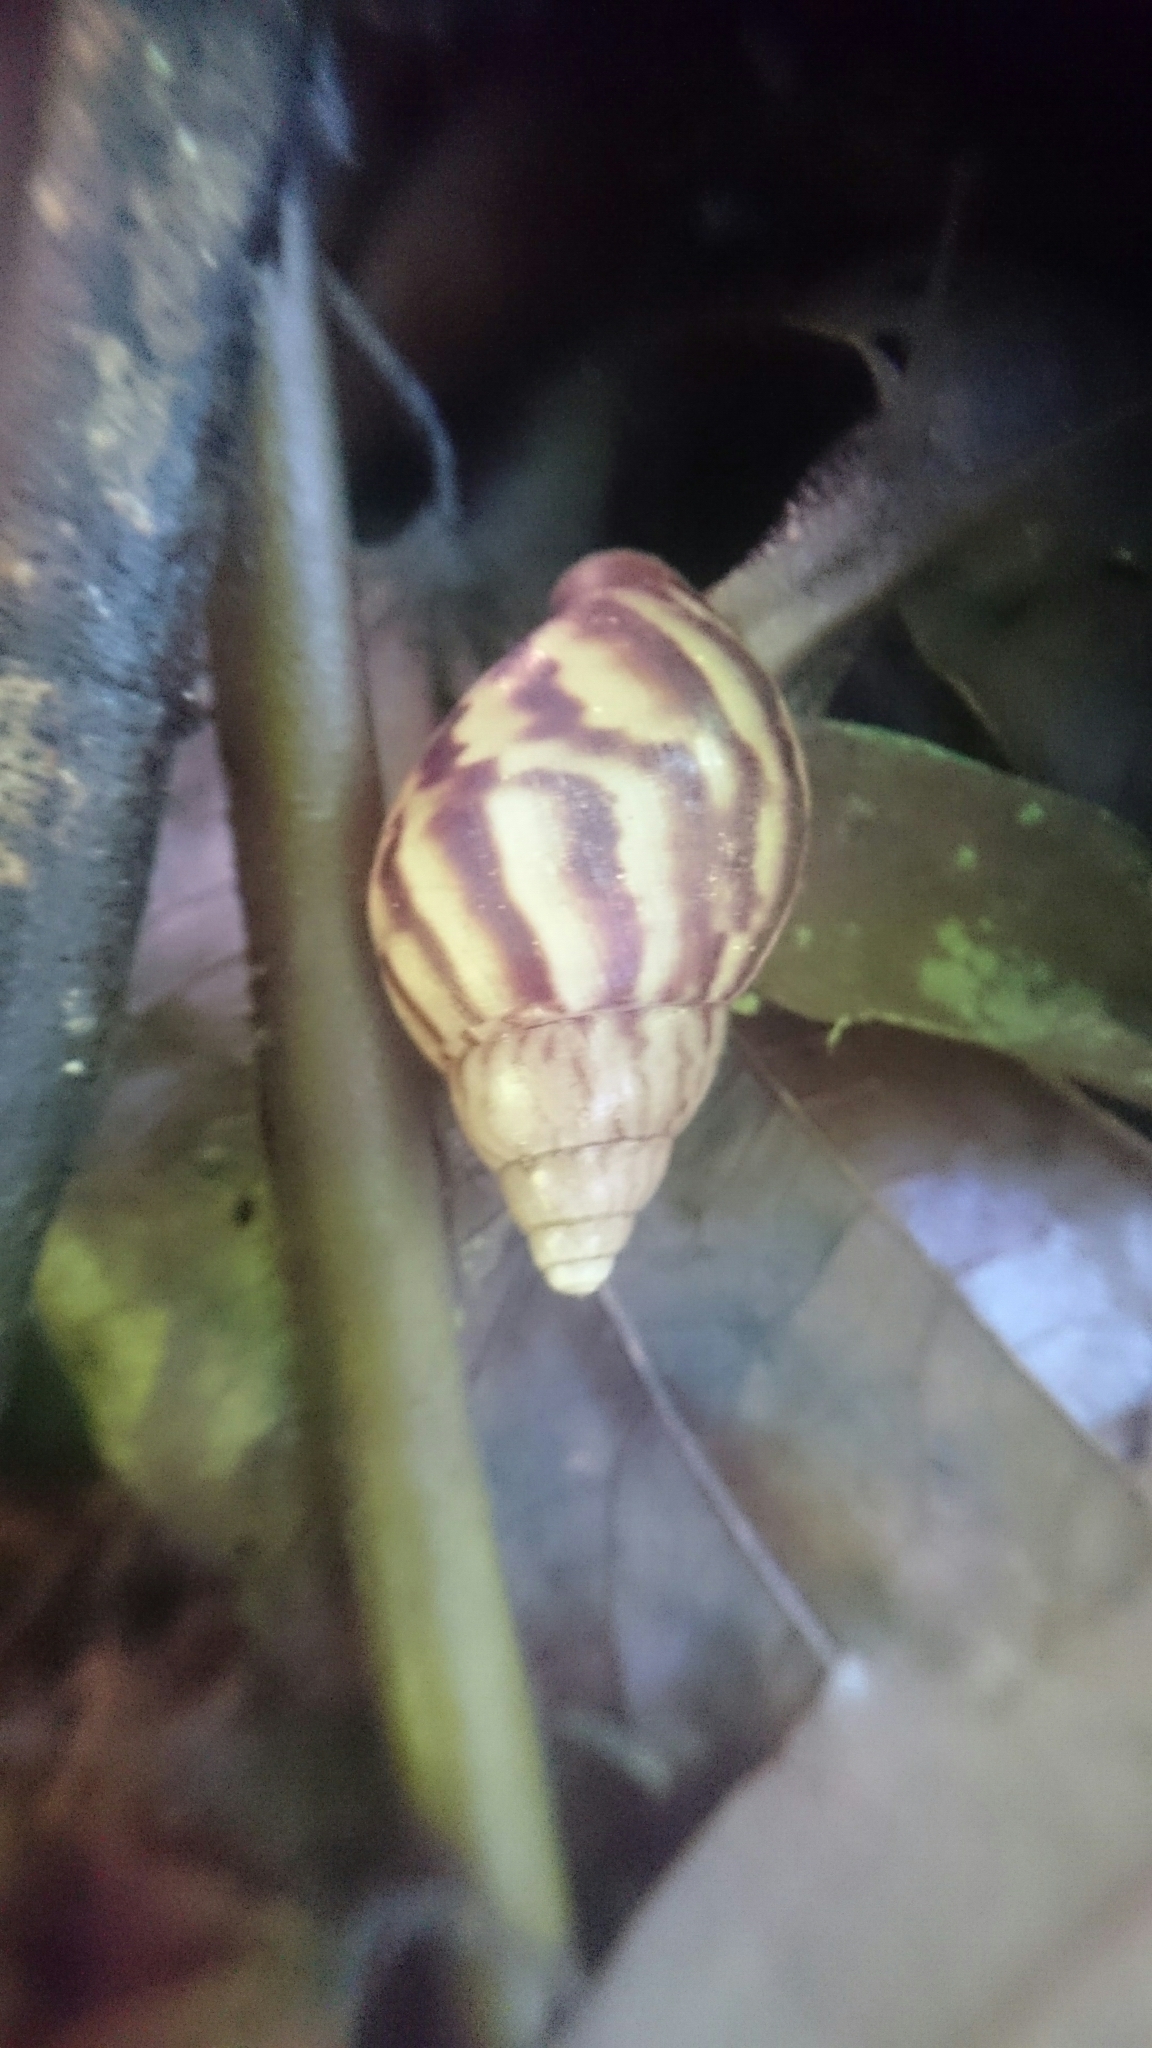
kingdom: Animalia
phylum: Mollusca
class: Gastropoda
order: Stylommatophora
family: Achatinidae
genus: Lissachatina
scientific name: Lissachatina fulica
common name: Giant african snail
